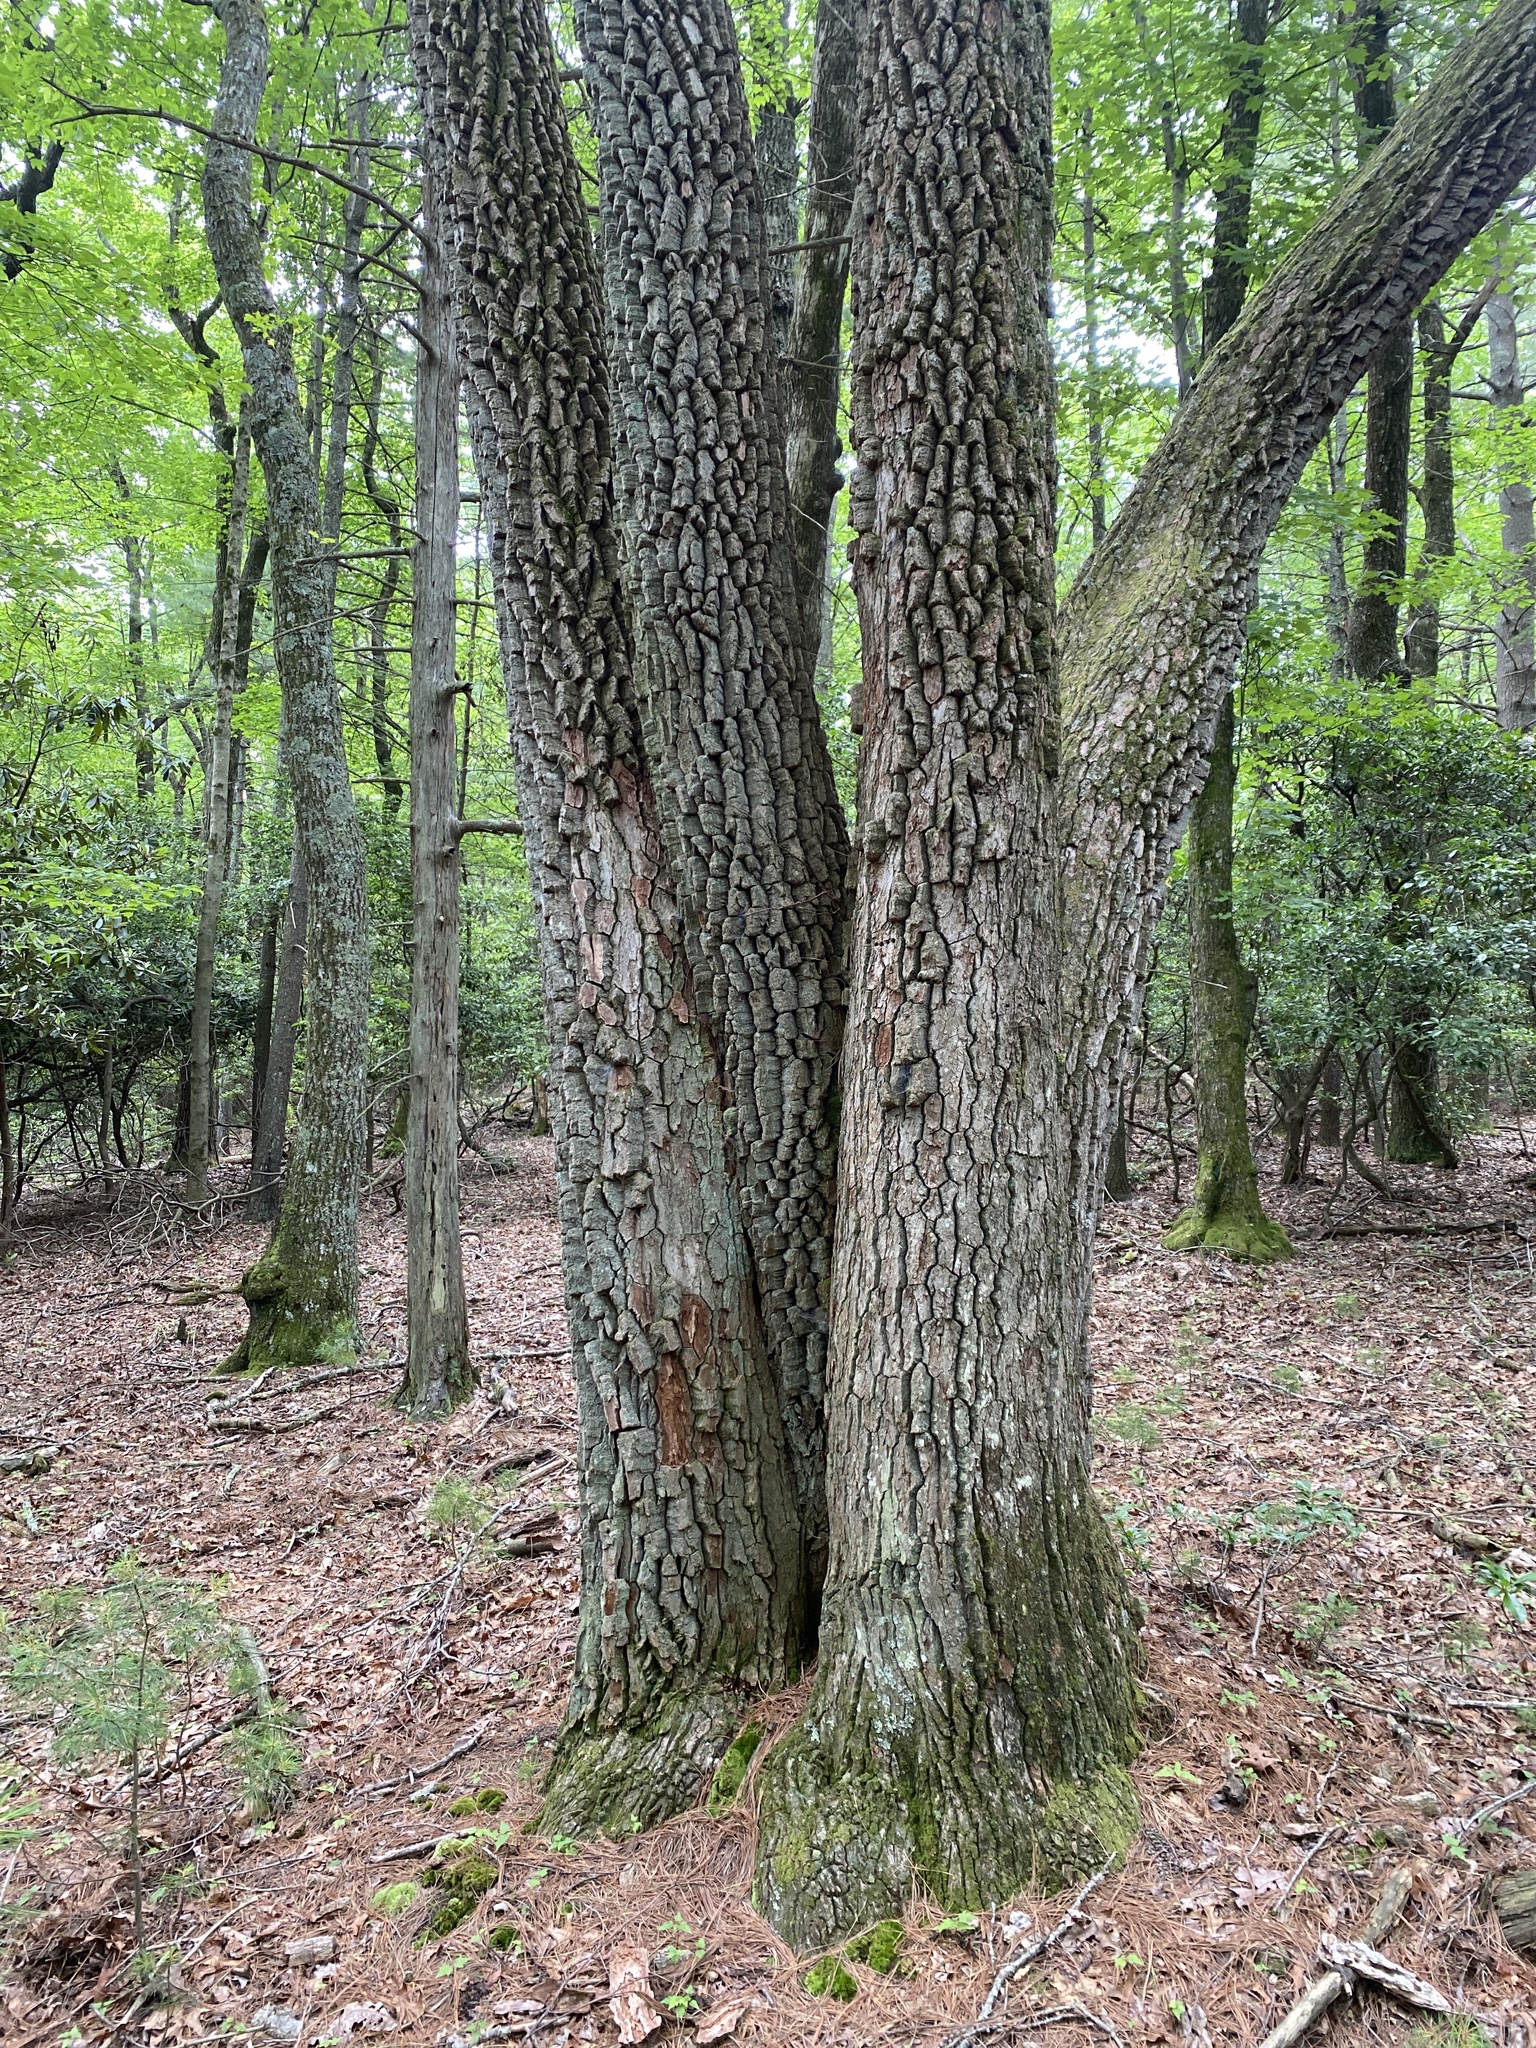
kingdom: Plantae
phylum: Tracheophyta
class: Magnoliopsida
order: Ericales
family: Ericaceae
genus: Oxydendrum
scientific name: Oxydendrum arboreum
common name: Sourwood
